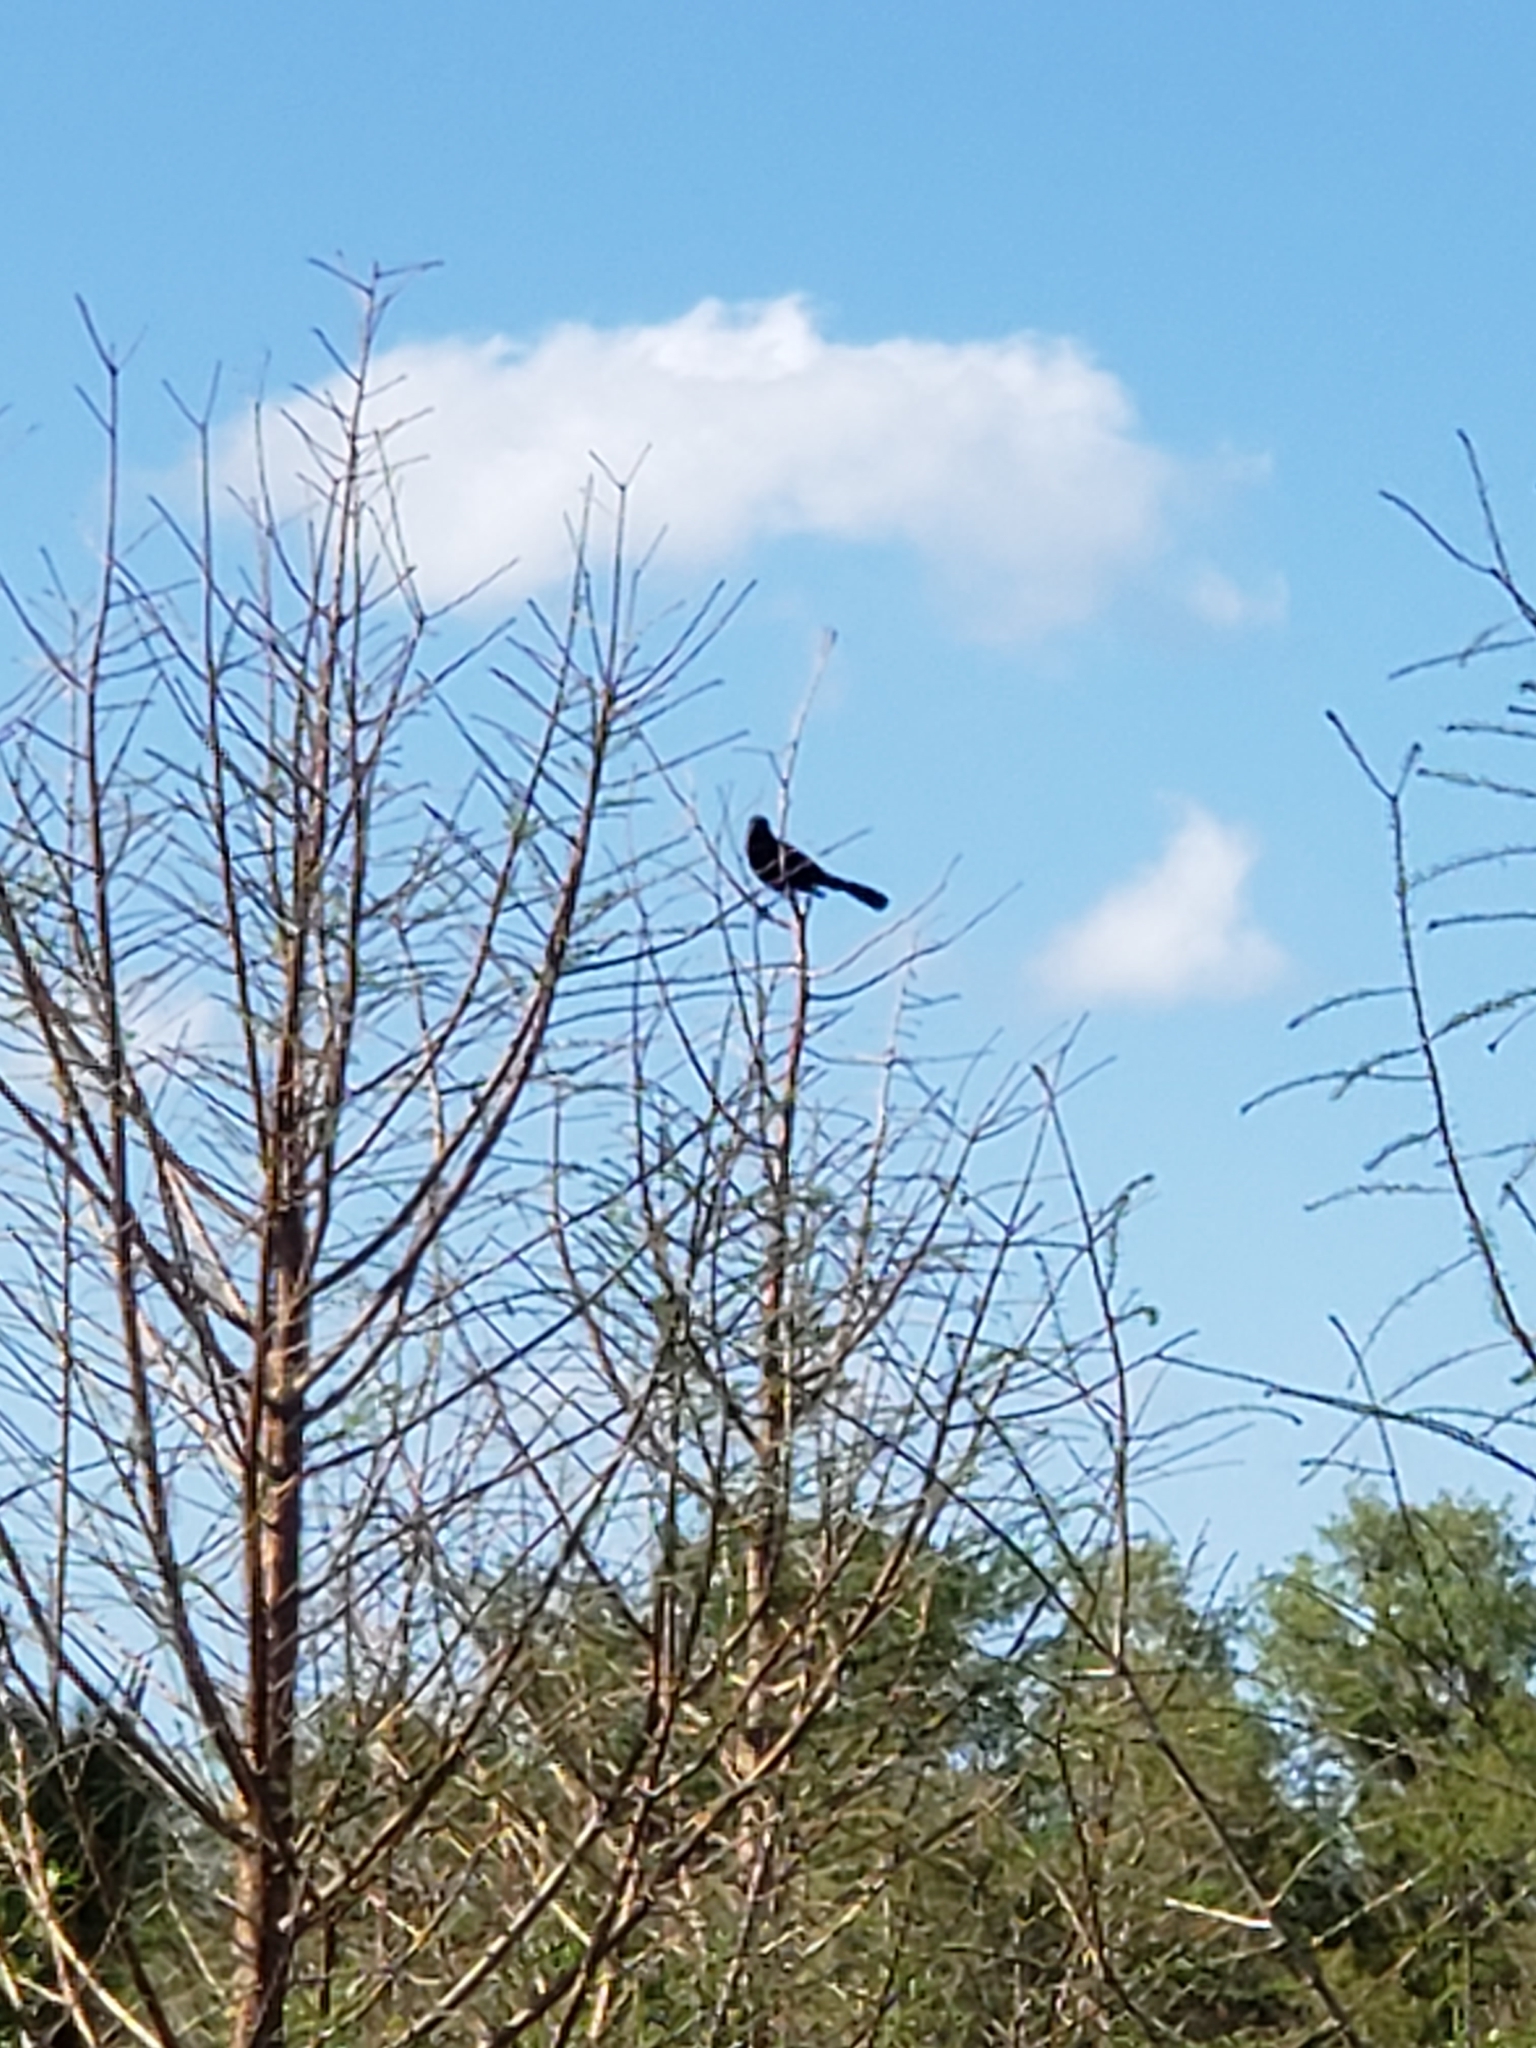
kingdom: Animalia
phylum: Chordata
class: Aves
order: Passeriformes
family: Icteridae
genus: Quiscalus
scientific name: Quiscalus major
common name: Boat-tailed grackle
